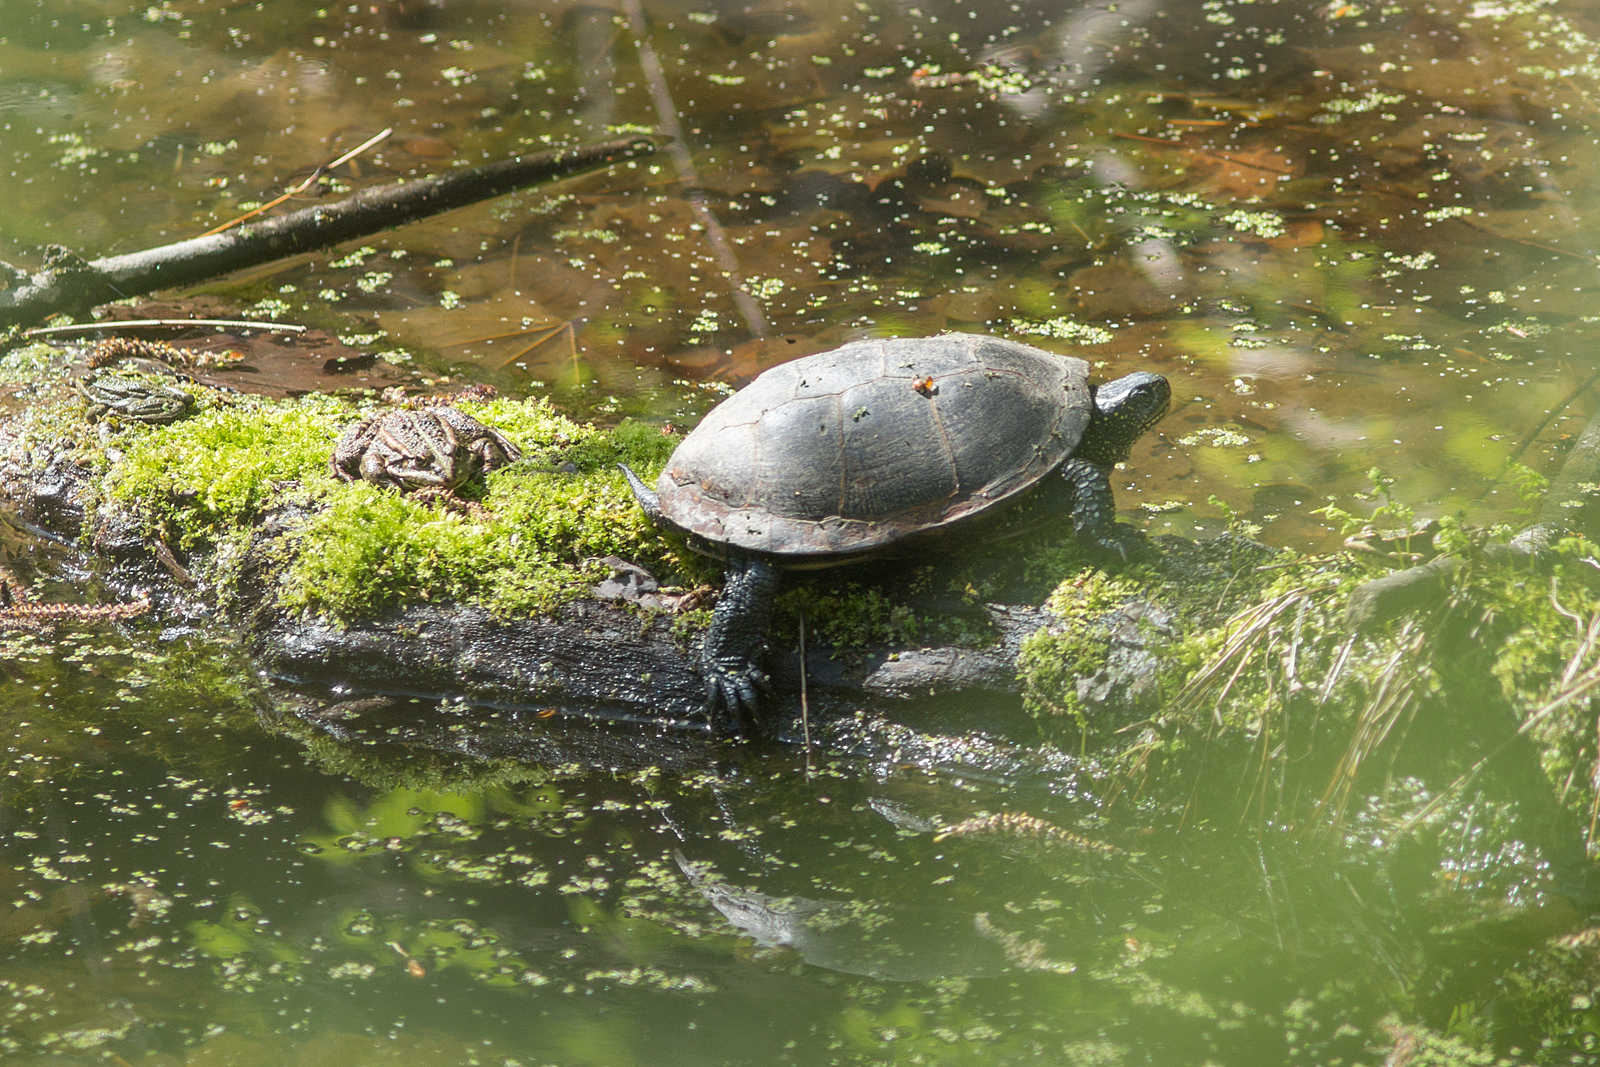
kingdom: Animalia
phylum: Chordata
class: Testudines
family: Emydidae
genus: Emys
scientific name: Emys orbicularis
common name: European pond turtle
